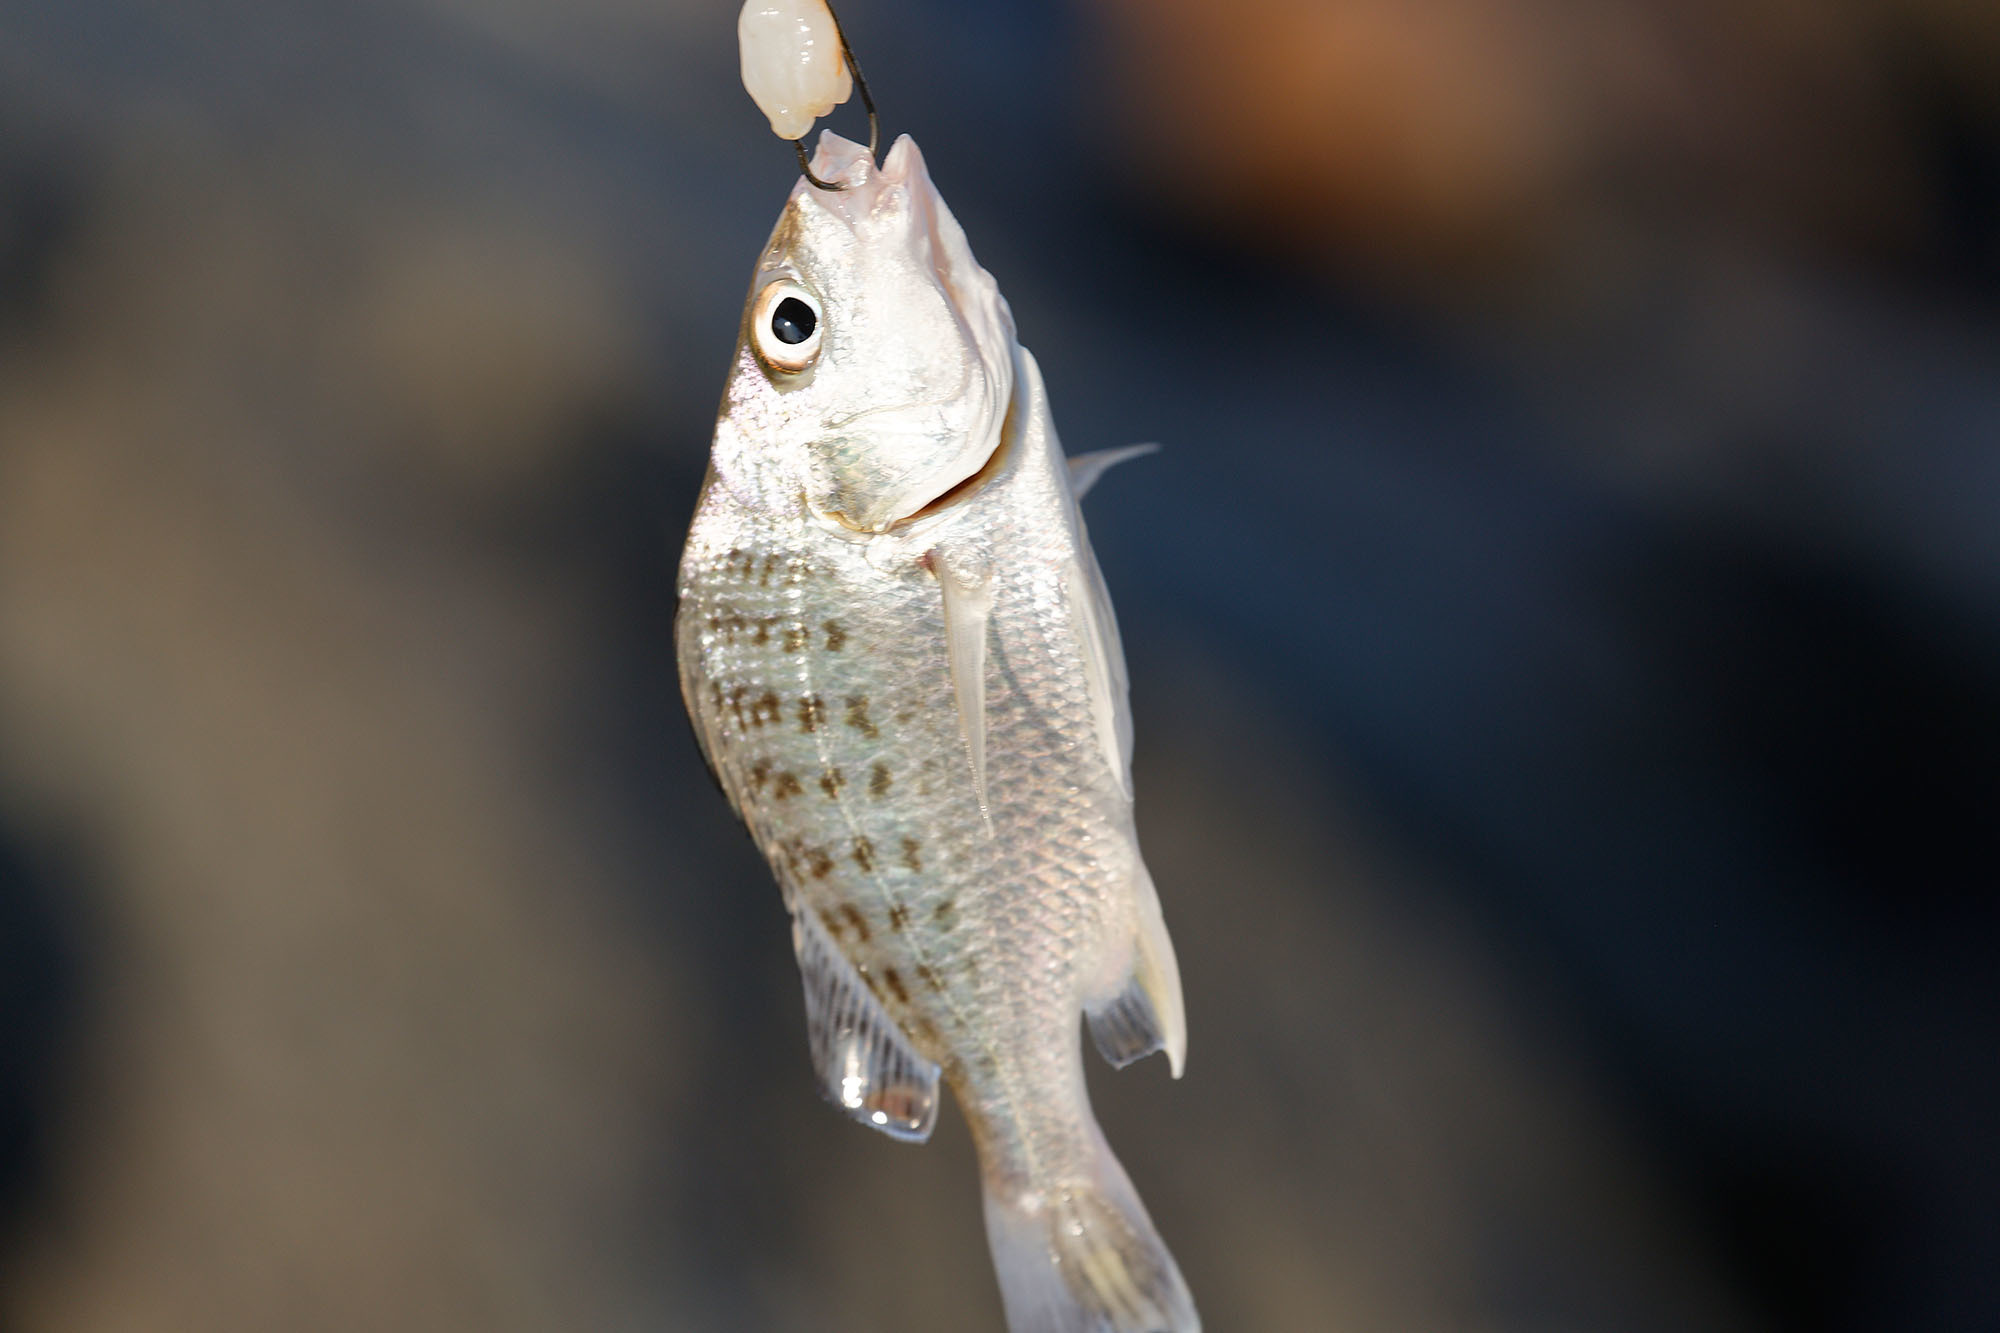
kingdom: Animalia
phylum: Chordata
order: Perciformes
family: Haemulidae
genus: Pomadasys
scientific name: Pomadasys kaakan
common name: Javelin grunter
